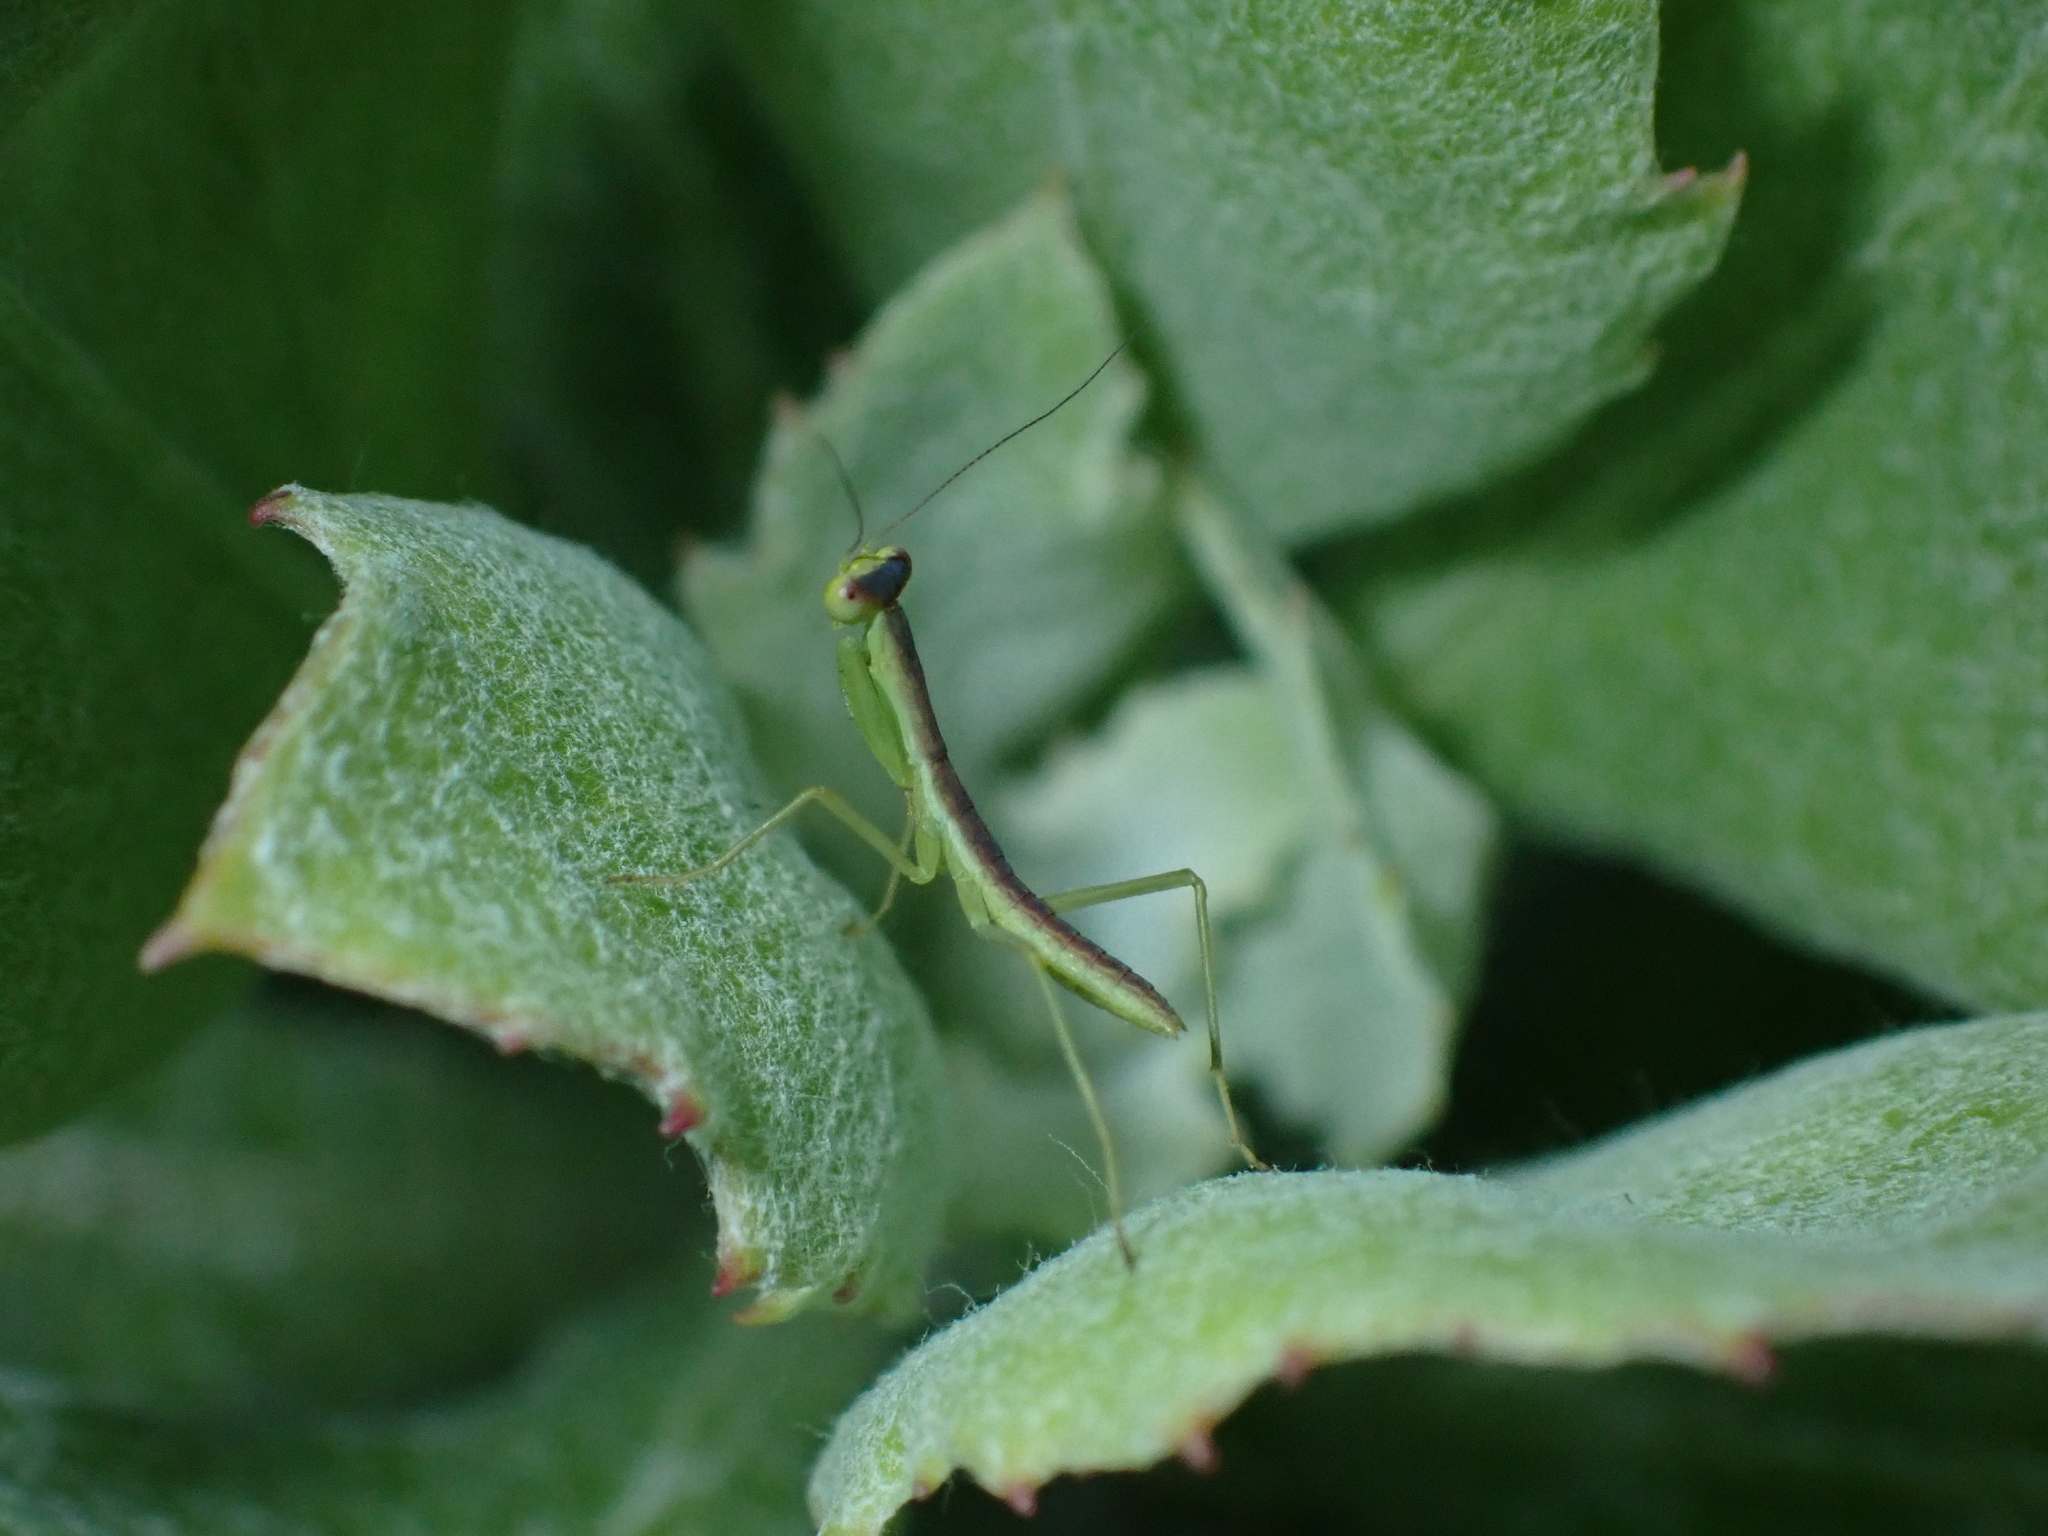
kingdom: Animalia
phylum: Arthropoda
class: Insecta
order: Mantodea
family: Mantidae
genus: Orthodera
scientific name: Orthodera novaezealandiae
